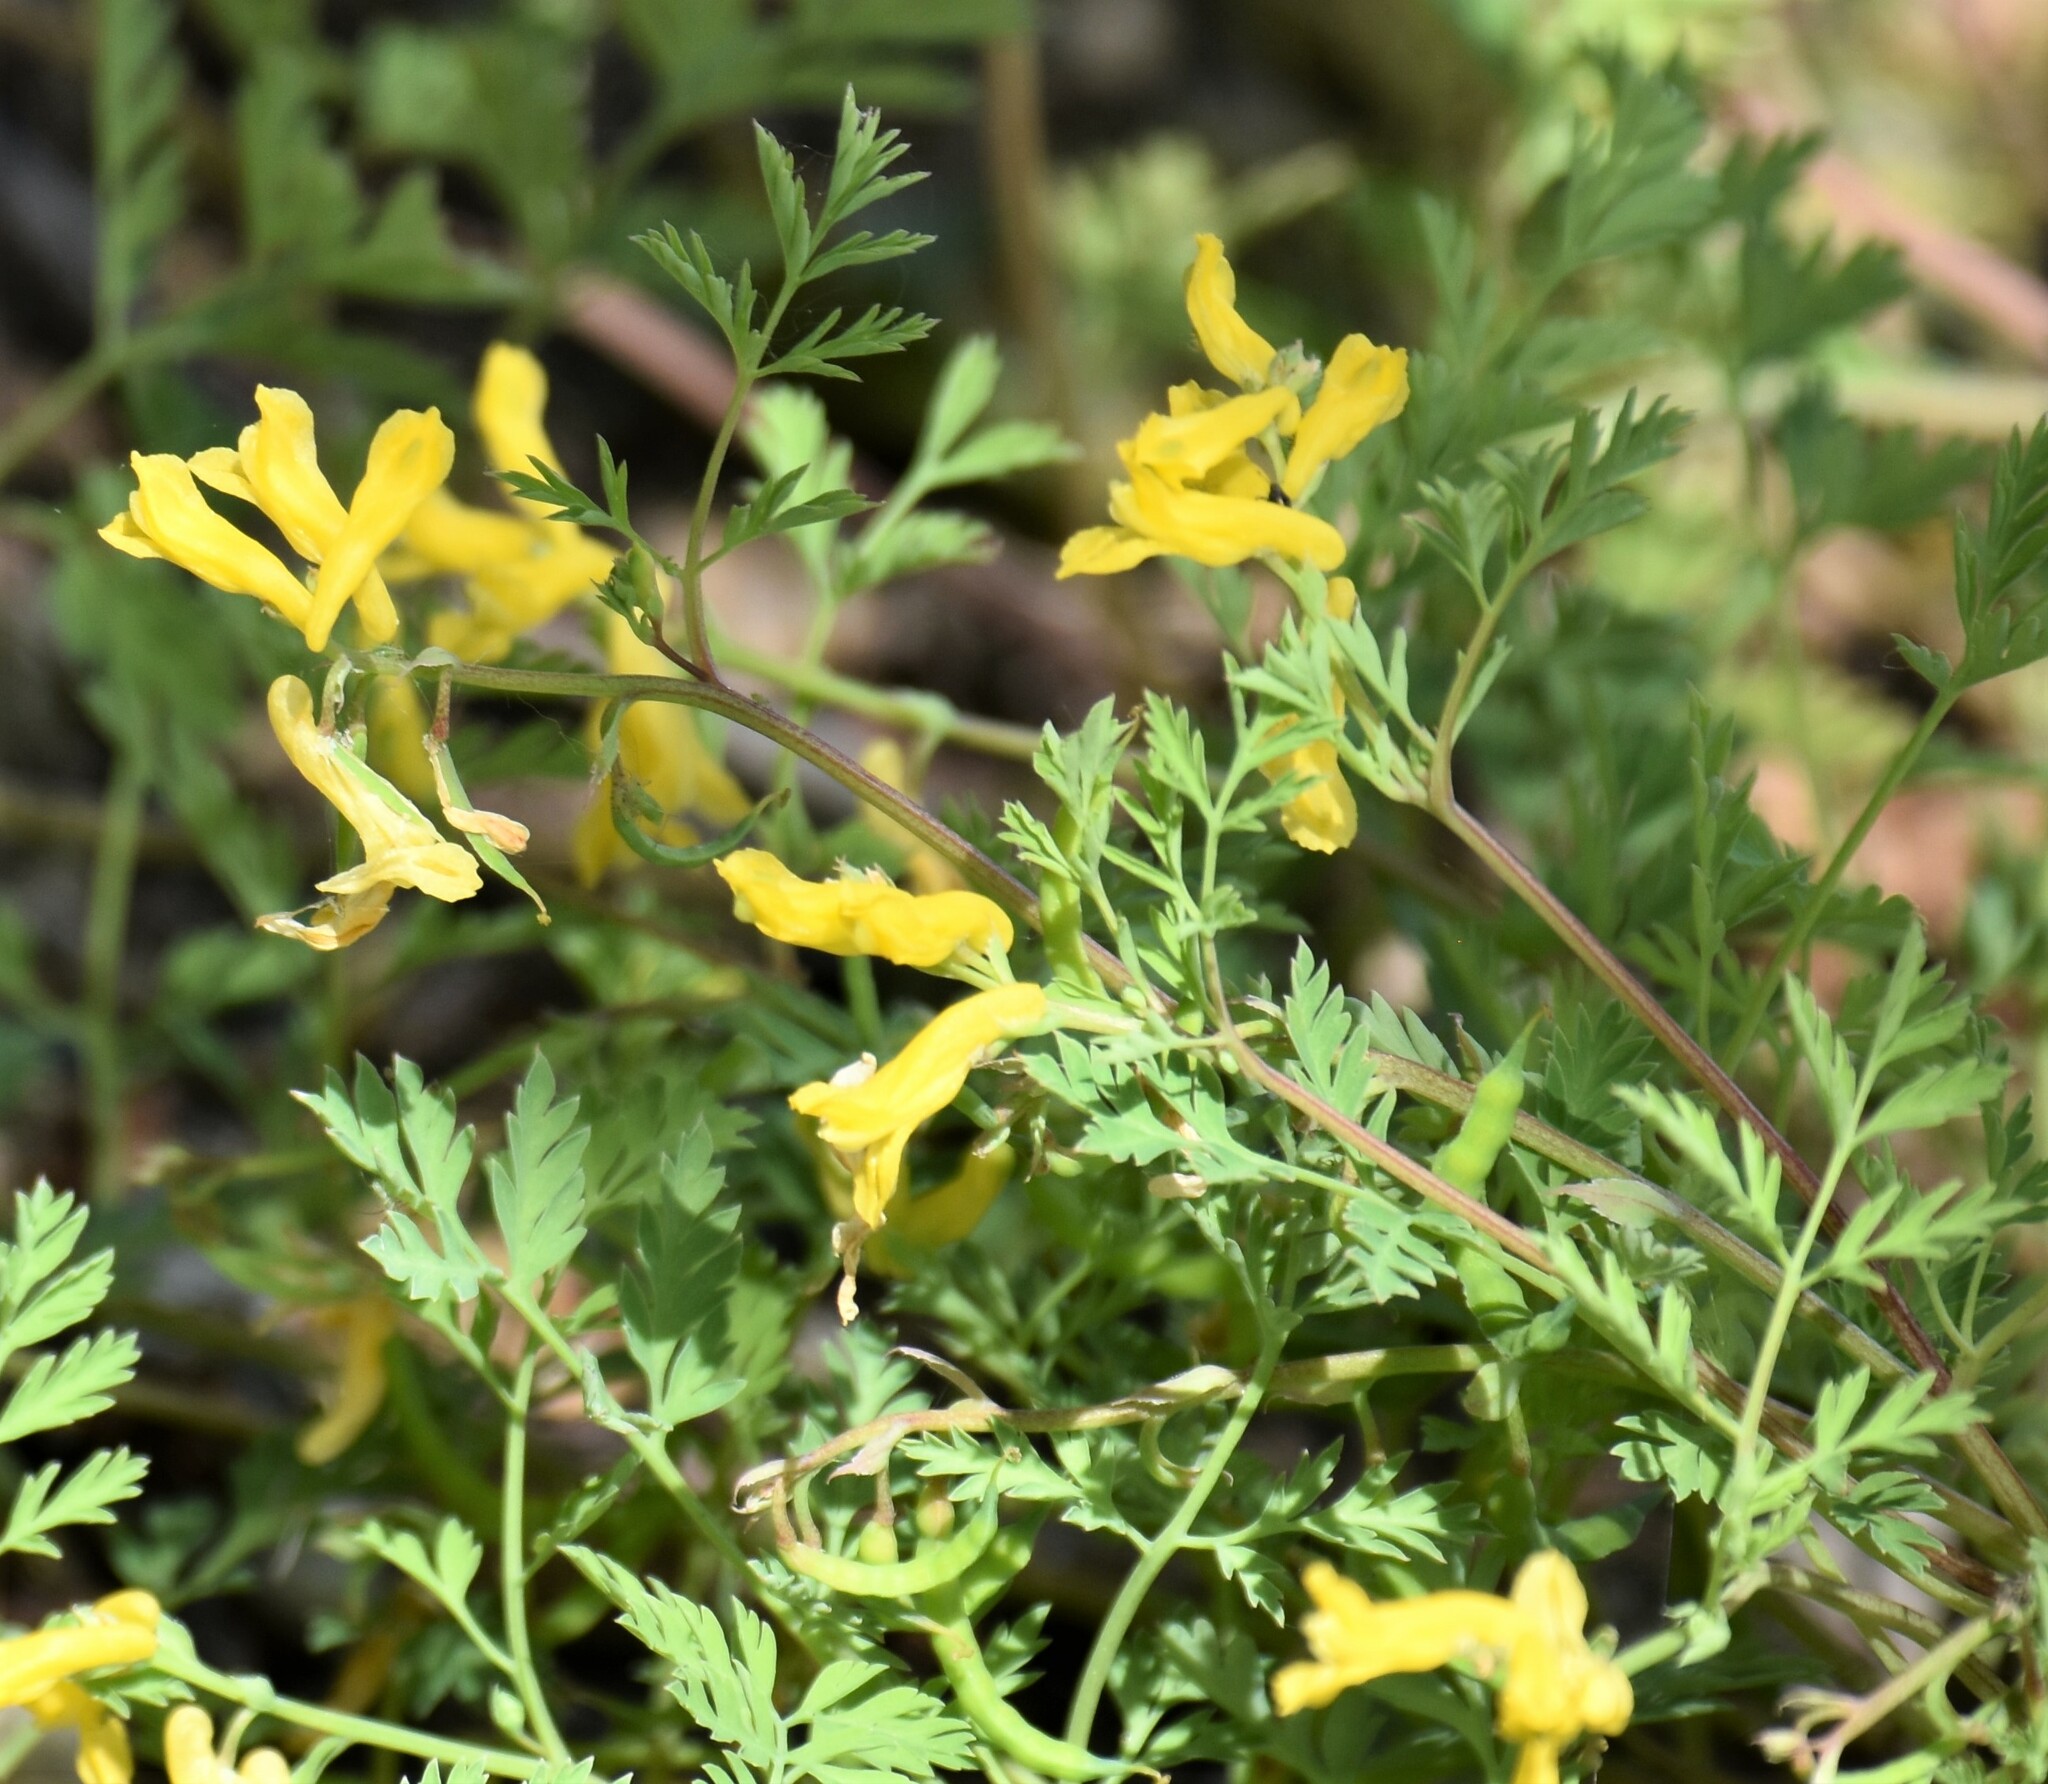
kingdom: Plantae
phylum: Tracheophyta
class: Magnoliopsida
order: Ranunculales
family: Papaveraceae
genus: Corydalis
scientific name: Corydalis aurea
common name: Golden corydalis
